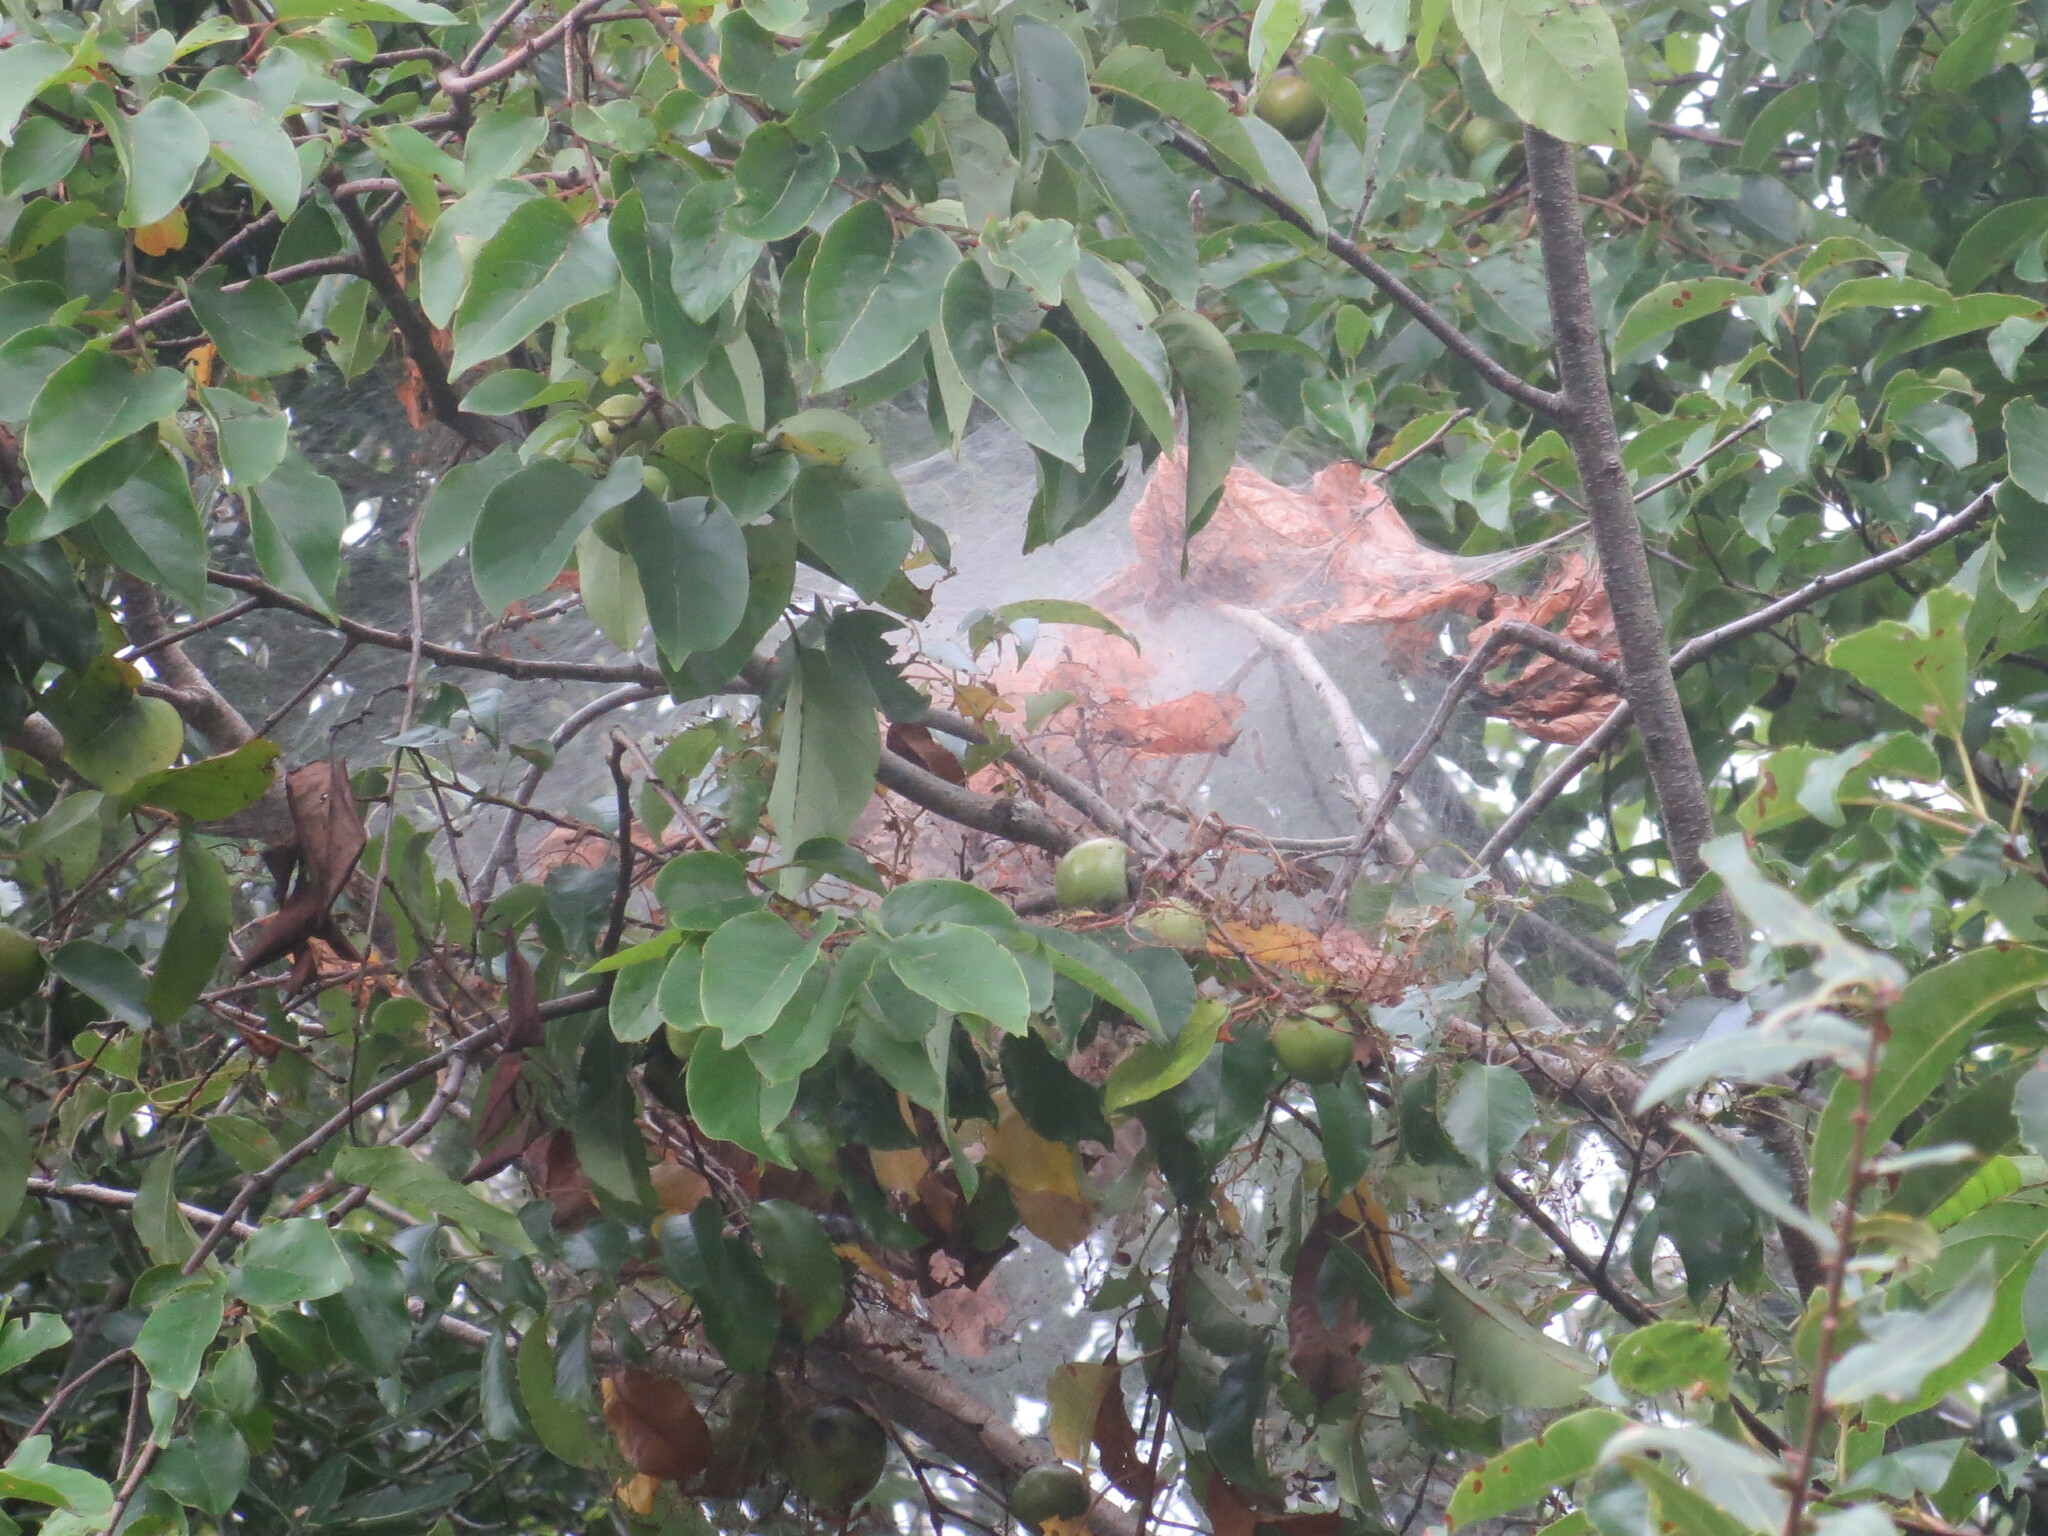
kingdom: Animalia
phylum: Arthropoda
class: Insecta
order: Lepidoptera
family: Erebidae
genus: Hyphantria
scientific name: Hyphantria cunea
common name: American white moth
